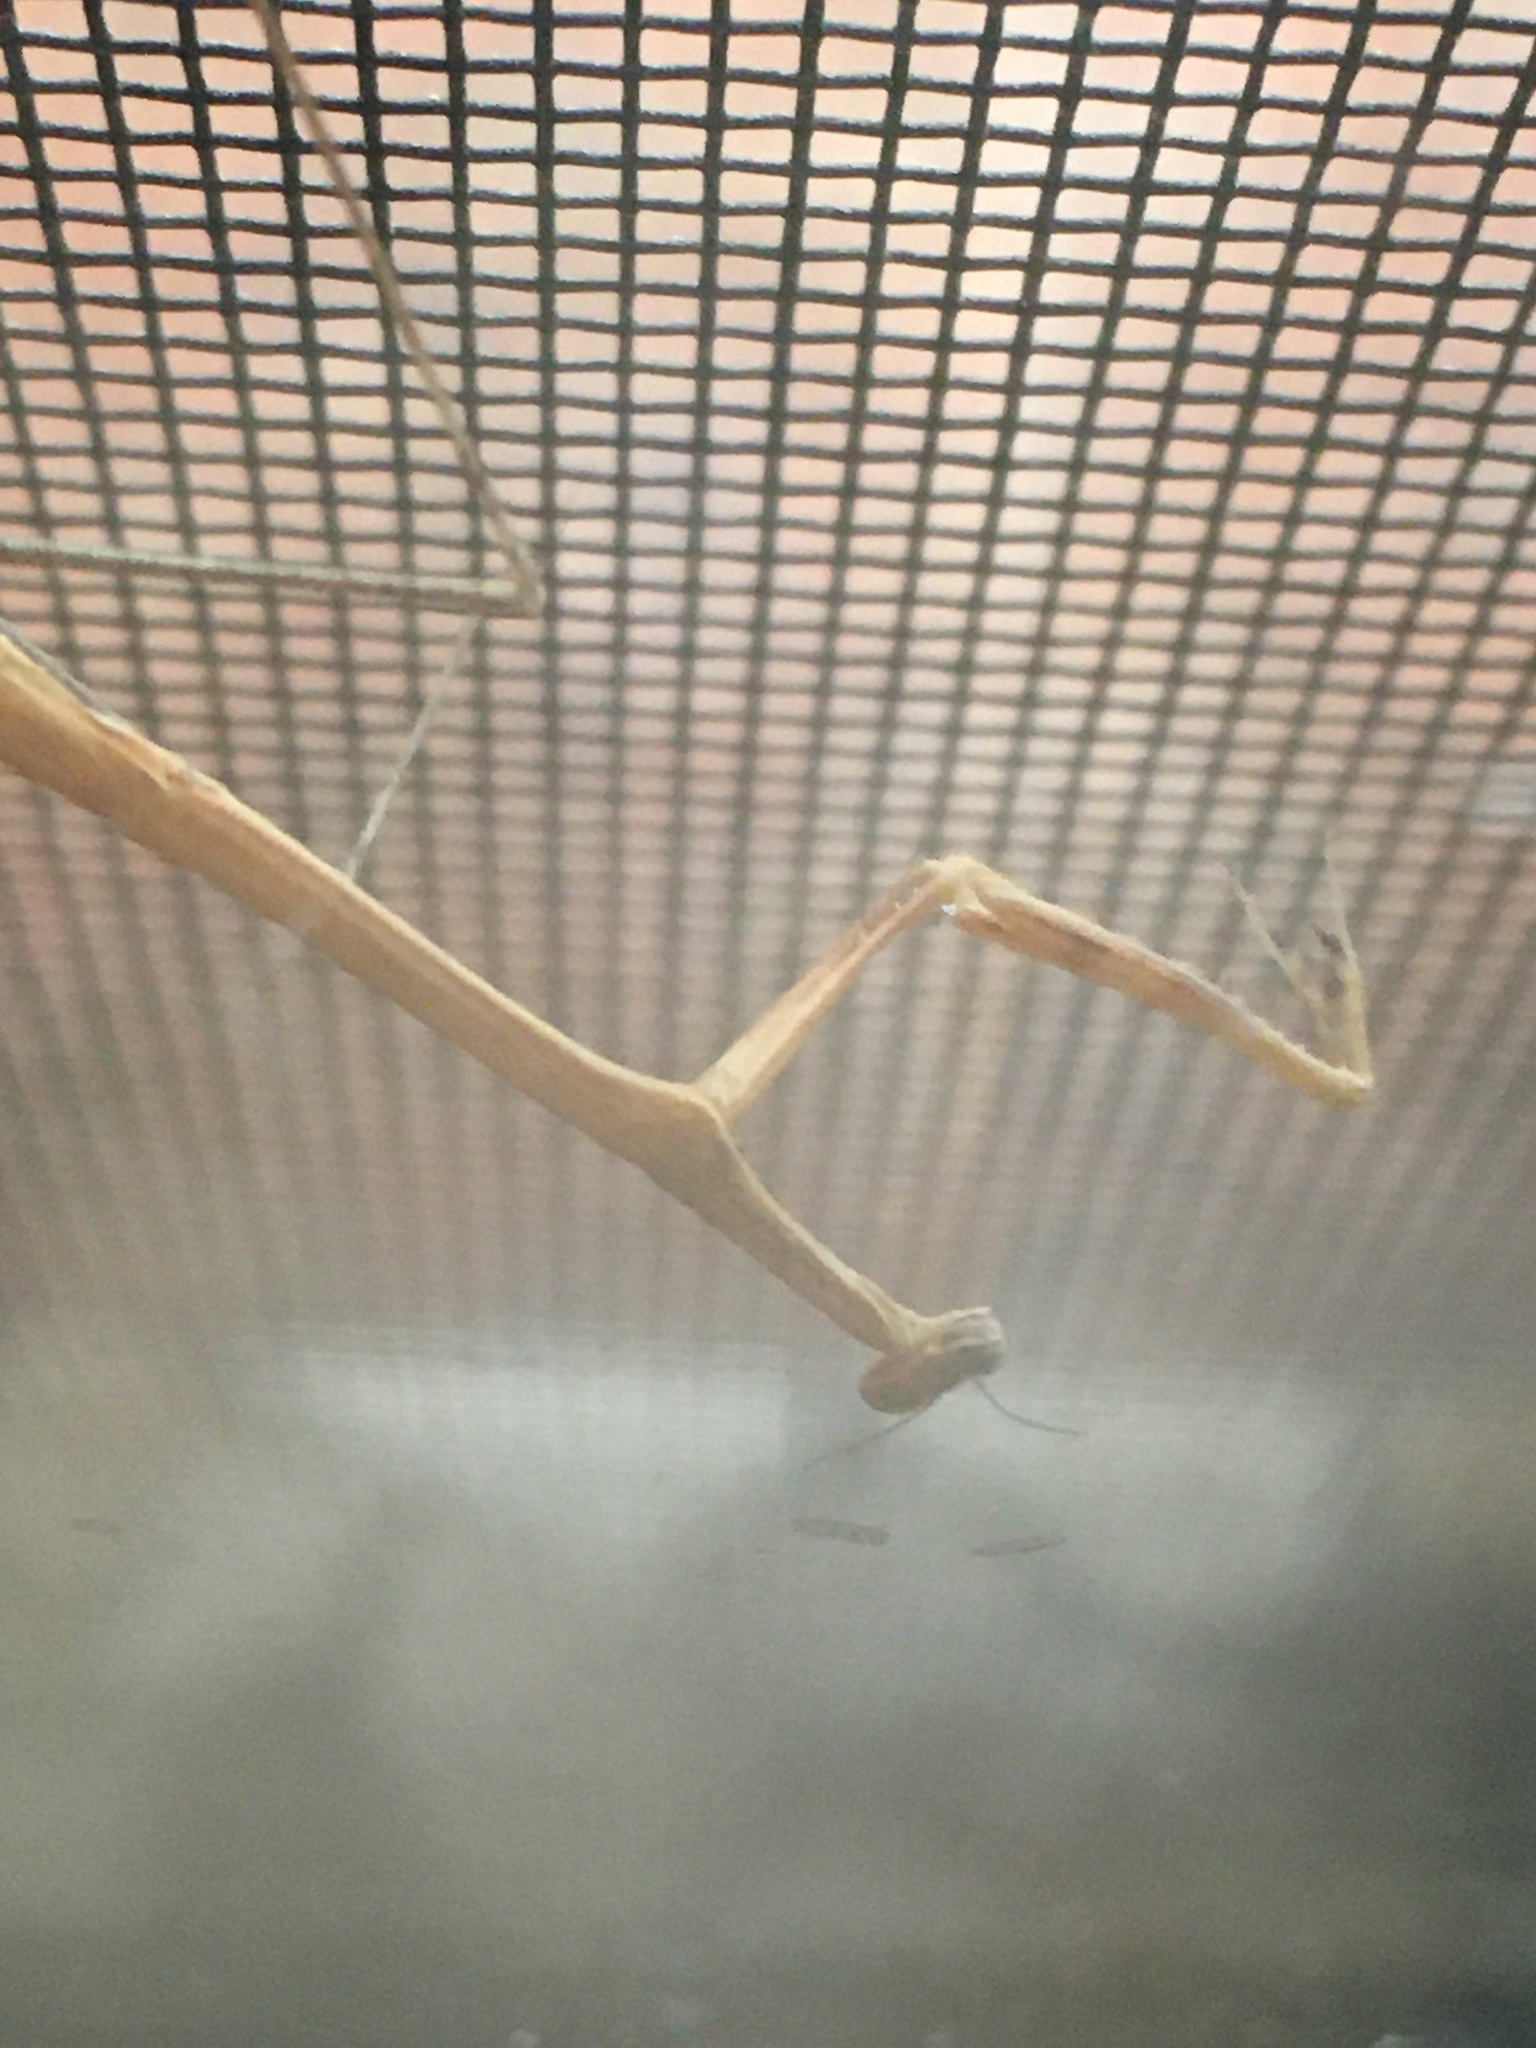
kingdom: Animalia
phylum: Arthropoda
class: Insecta
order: Mantodea
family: Thespidae
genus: Bistanta
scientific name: Bistanta mexicana
